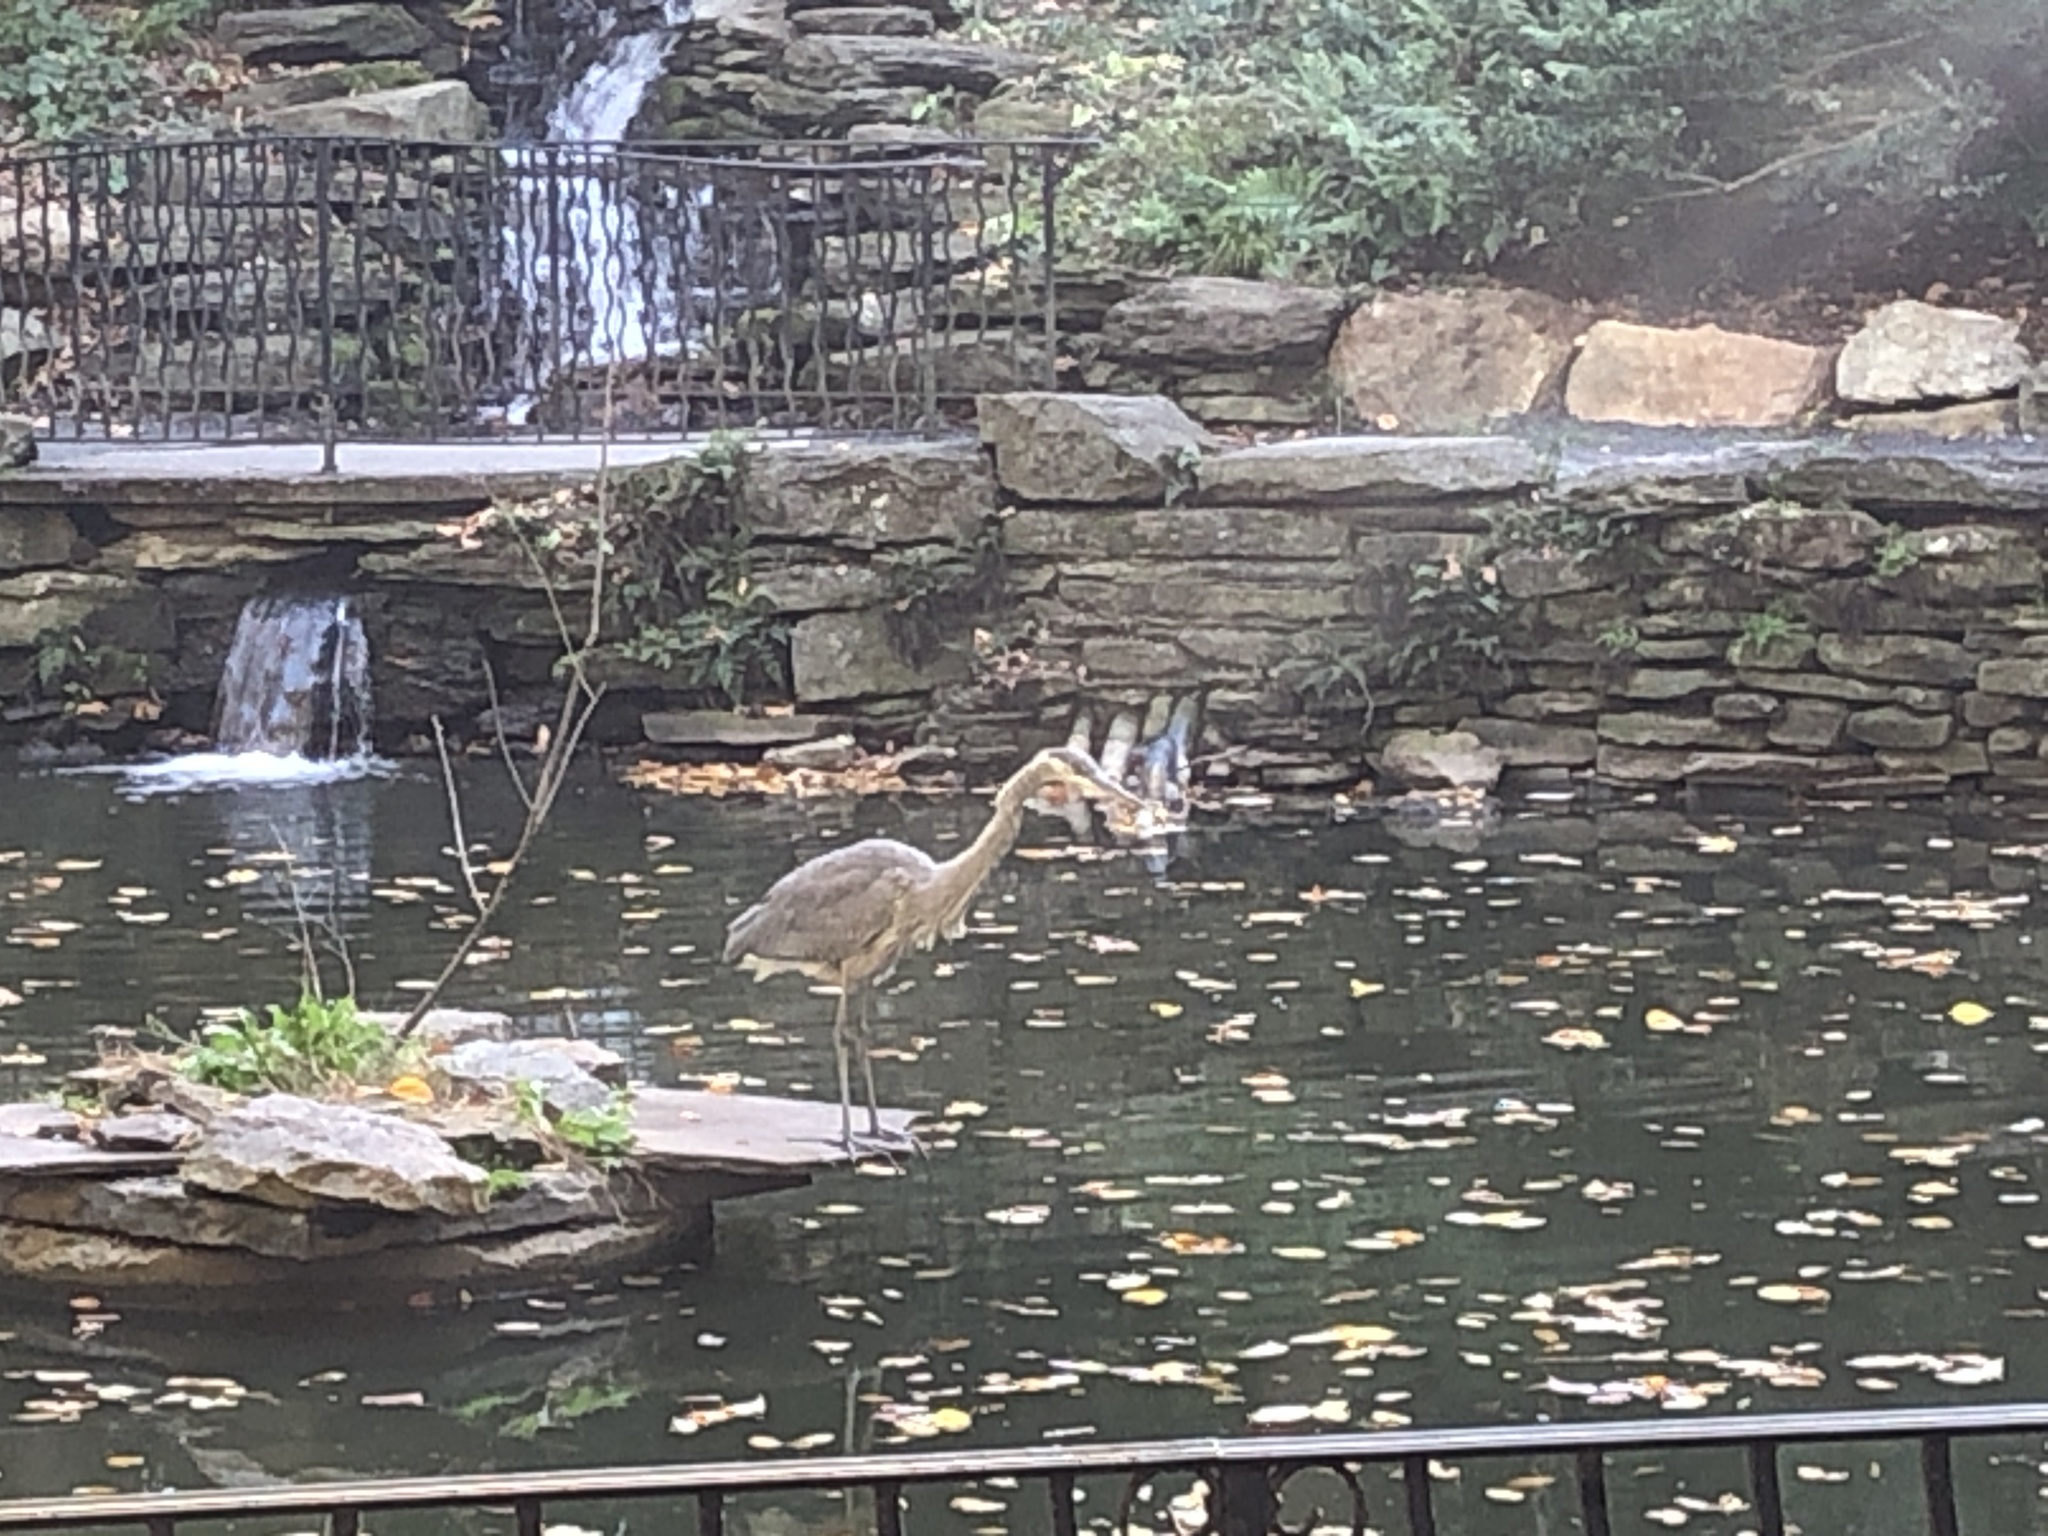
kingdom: Animalia
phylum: Chordata
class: Aves
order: Pelecaniformes
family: Ardeidae
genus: Ardea
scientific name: Ardea herodias
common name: Great blue heron
